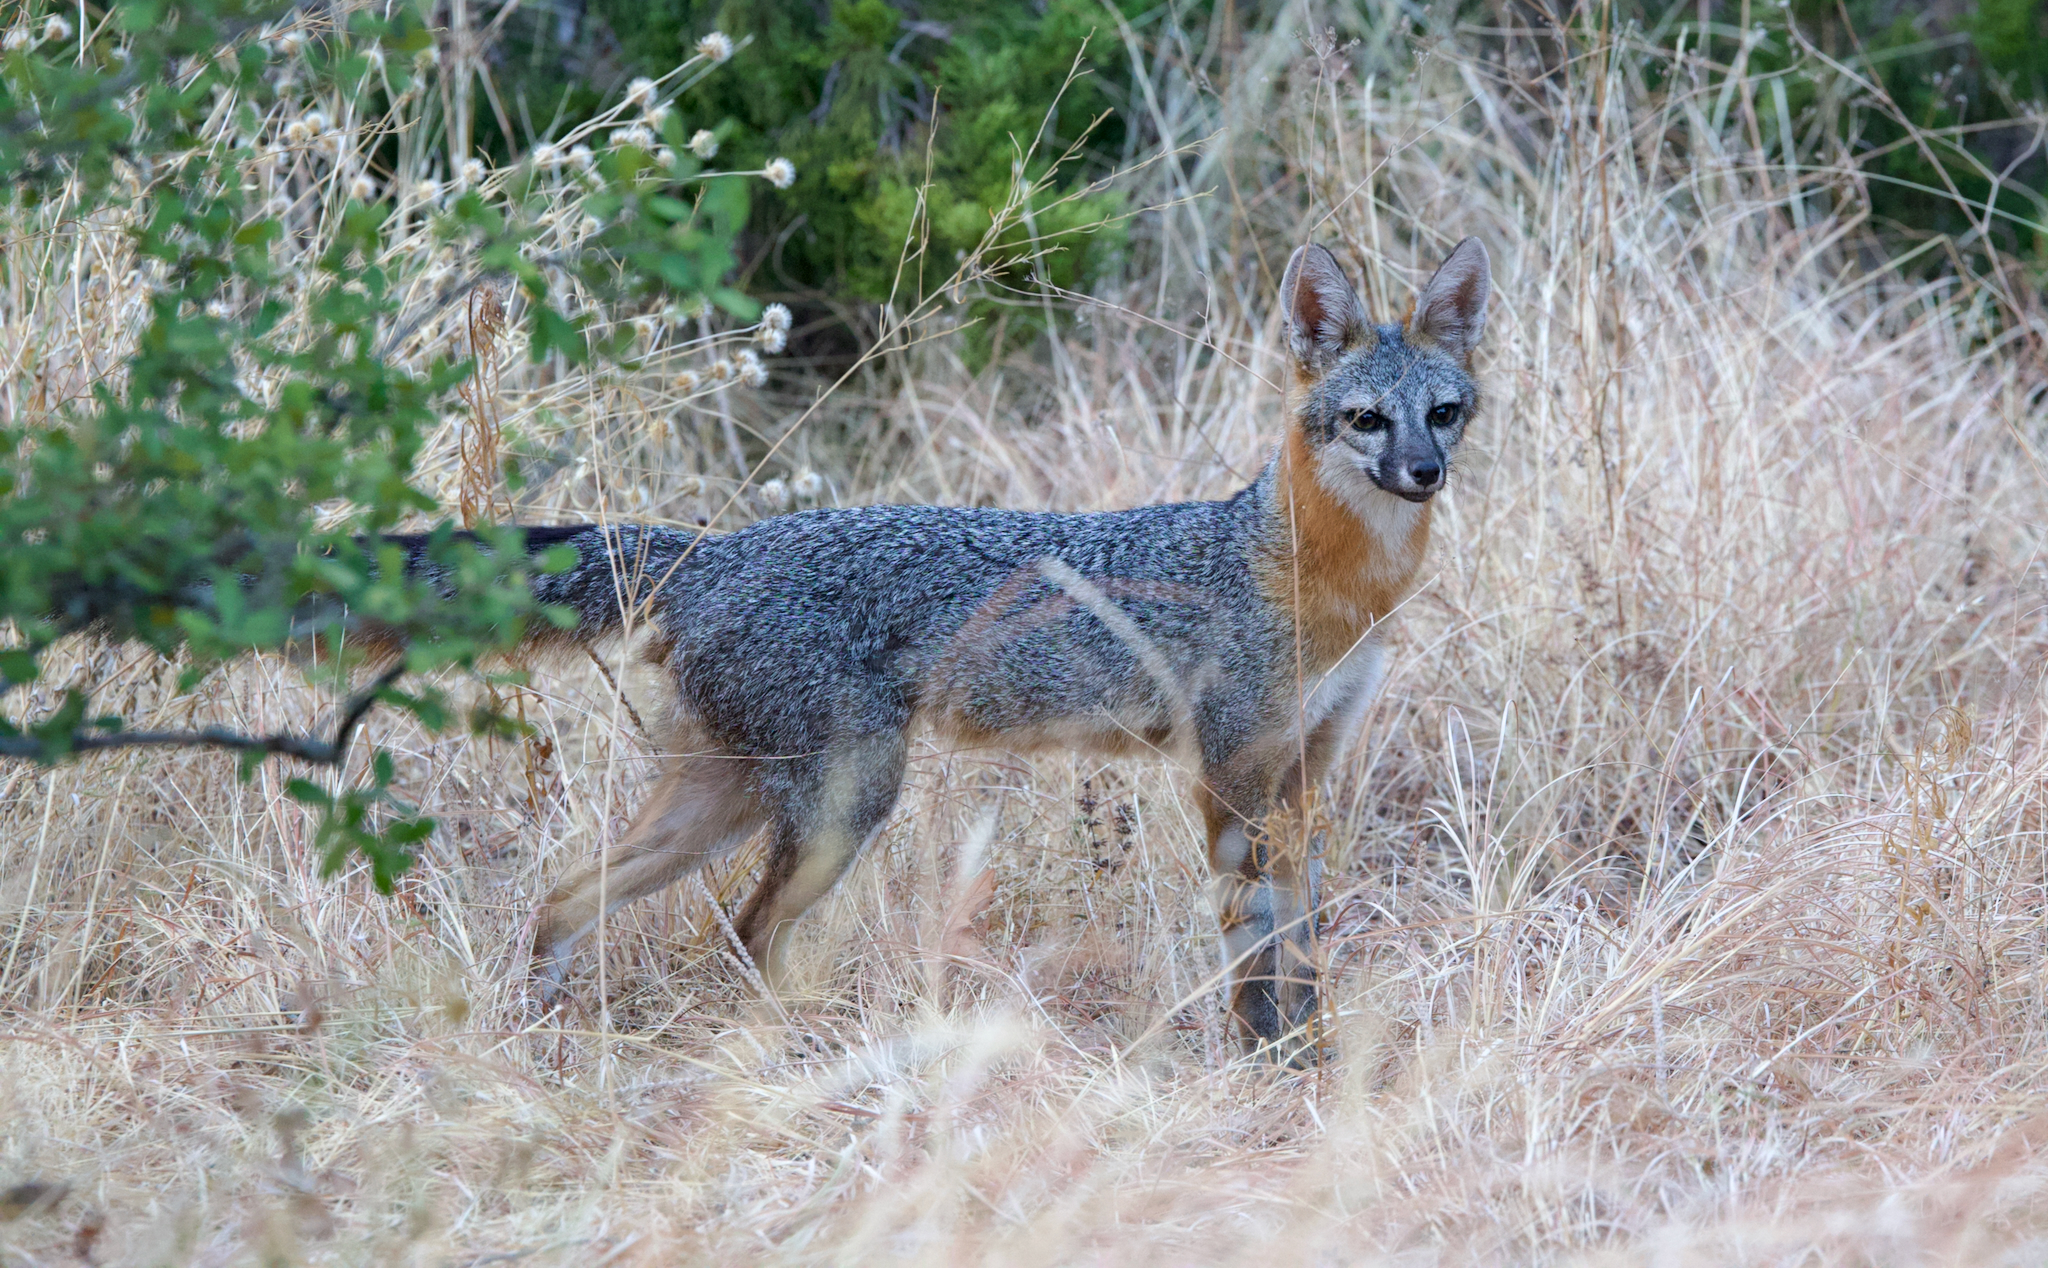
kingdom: Animalia
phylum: Chordata
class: Mammalia
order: Carnivora
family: Canidae
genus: Urocyon
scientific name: Urocyon cinereoargenteus
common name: Gray fox
